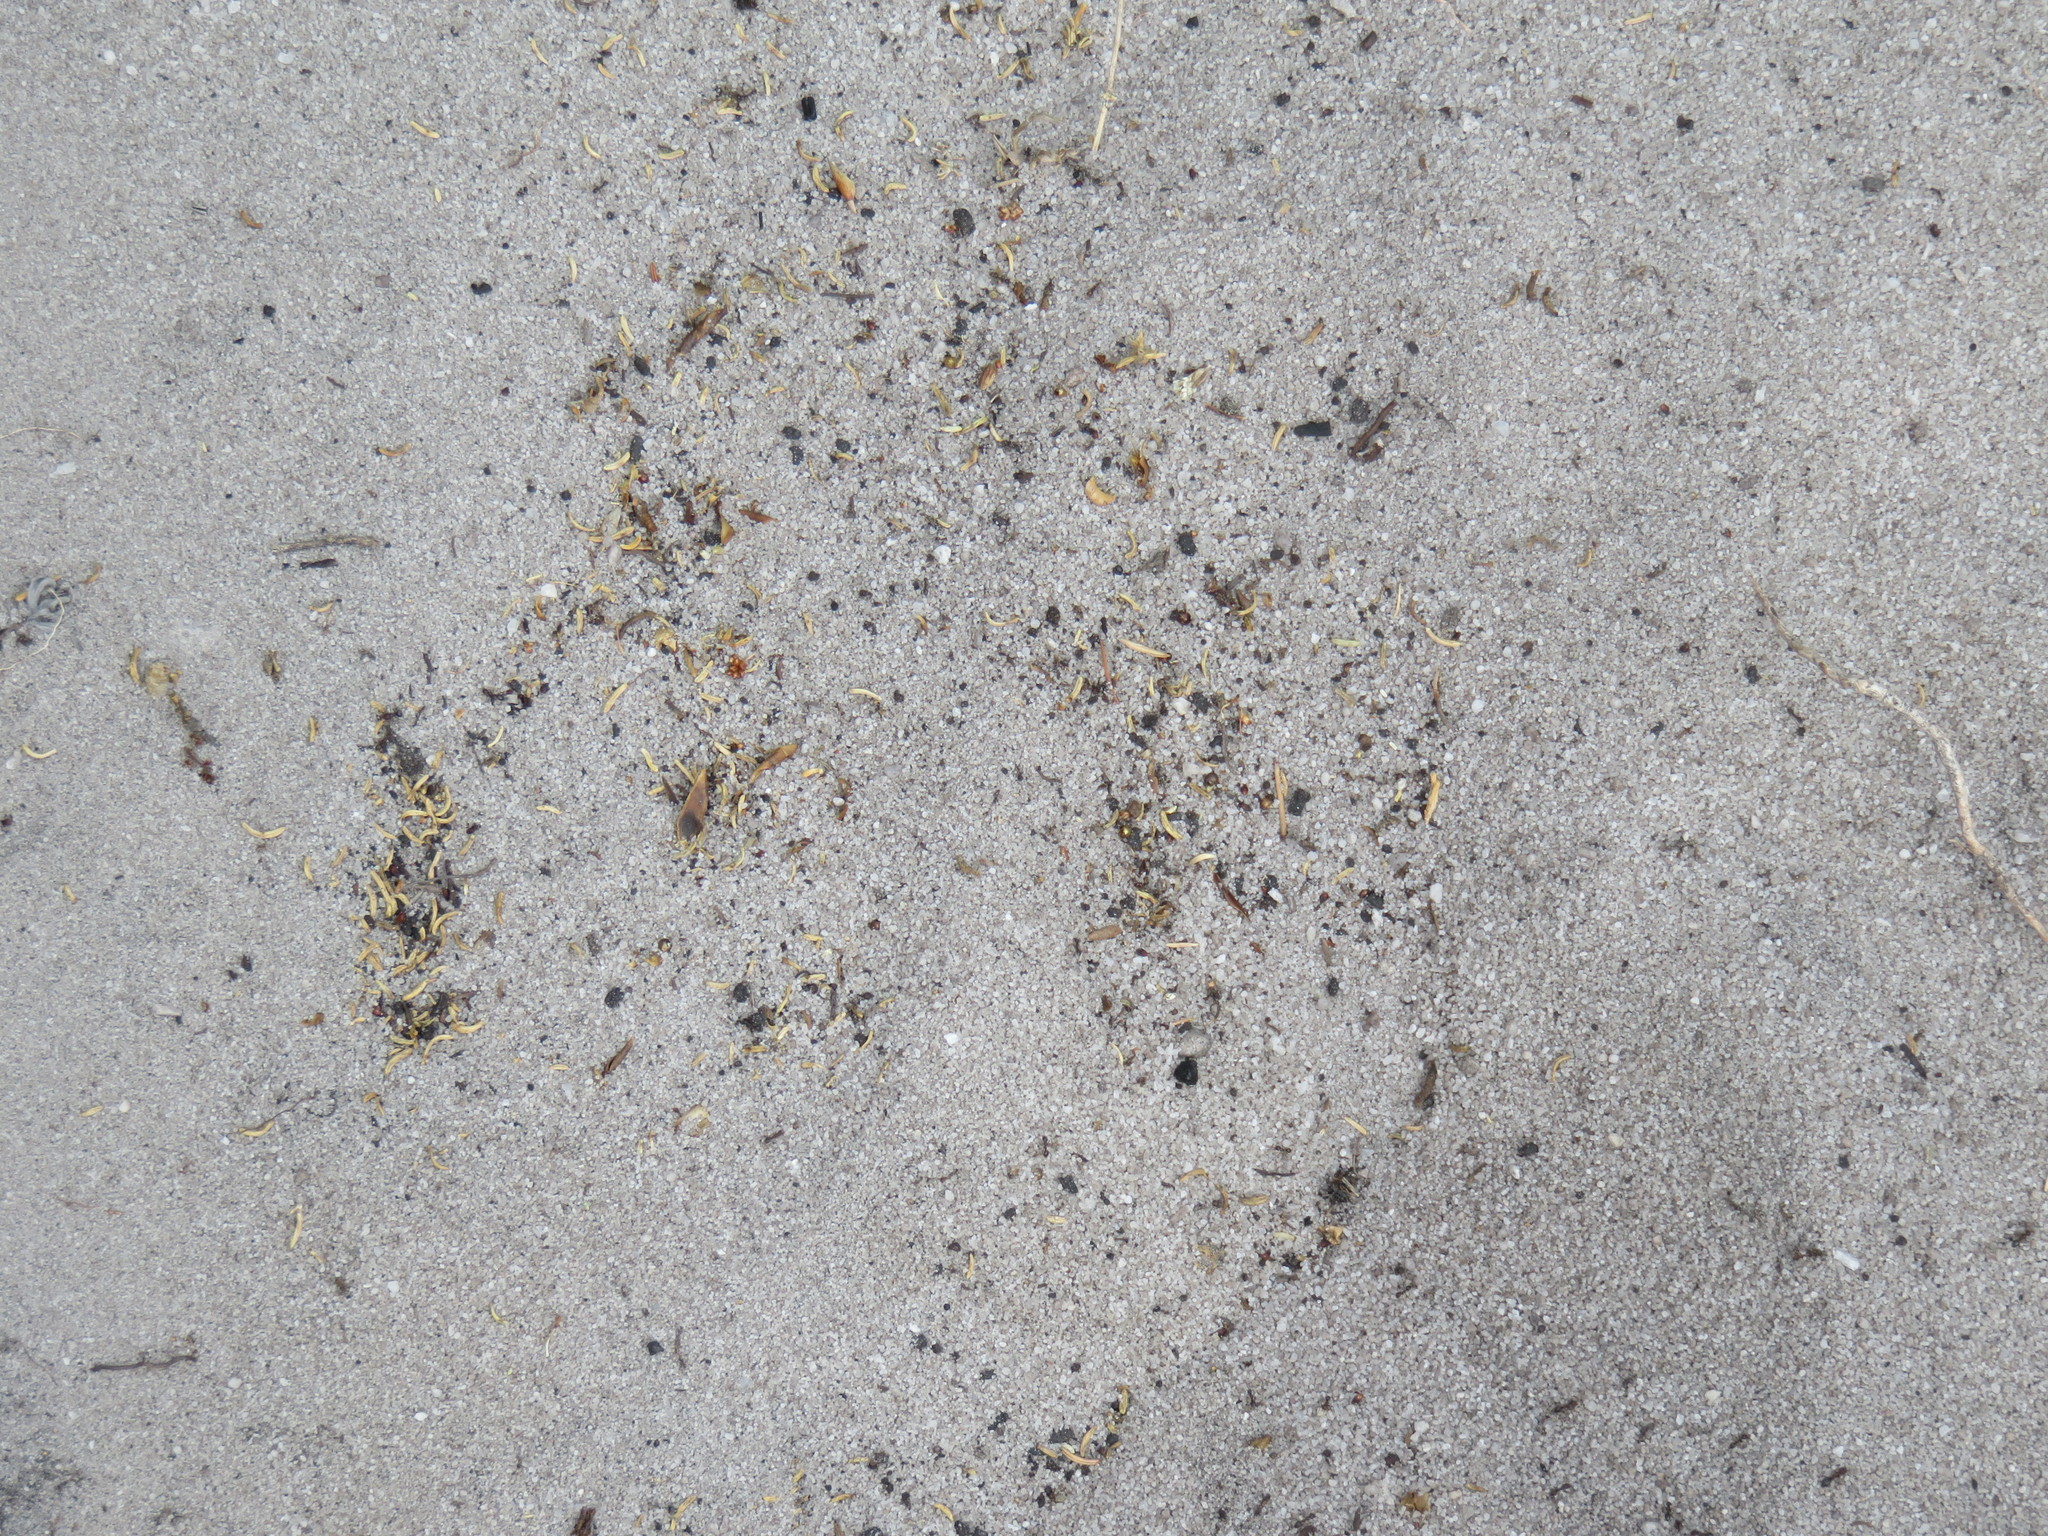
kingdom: Animalia
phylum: Arthropoda
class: Insecta
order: Hymenoptera
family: Formicidae
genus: Tetramorium
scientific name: Tetramorium sericeiventre
